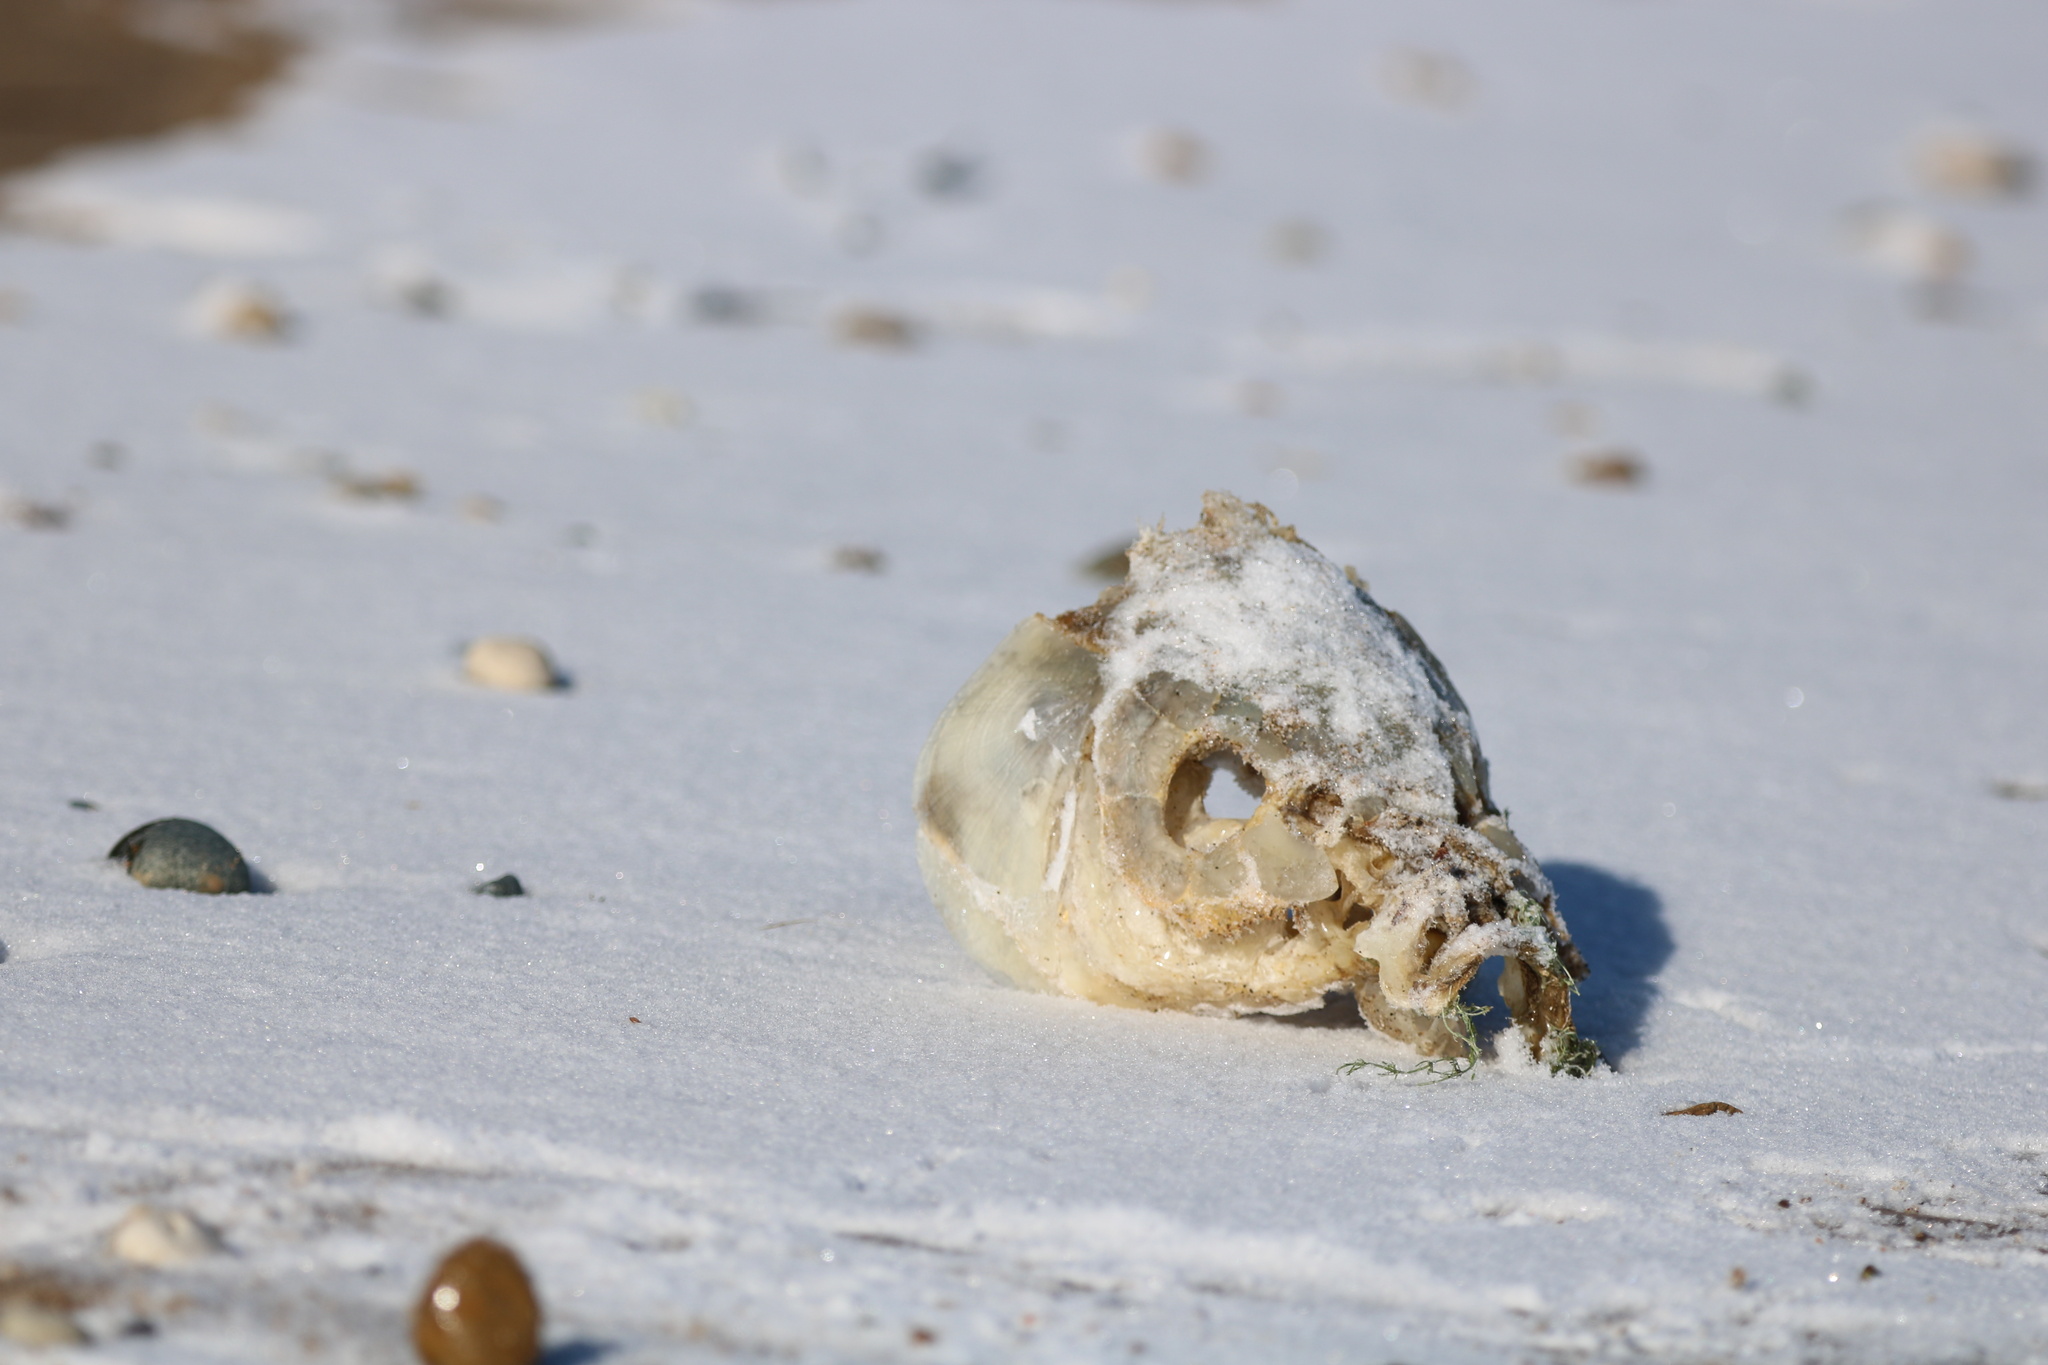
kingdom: Animalia
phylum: Chordata
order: Cypriniformes
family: Cyprinidae
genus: Cyprinus
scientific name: Cyprinus carpio
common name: Common carp
